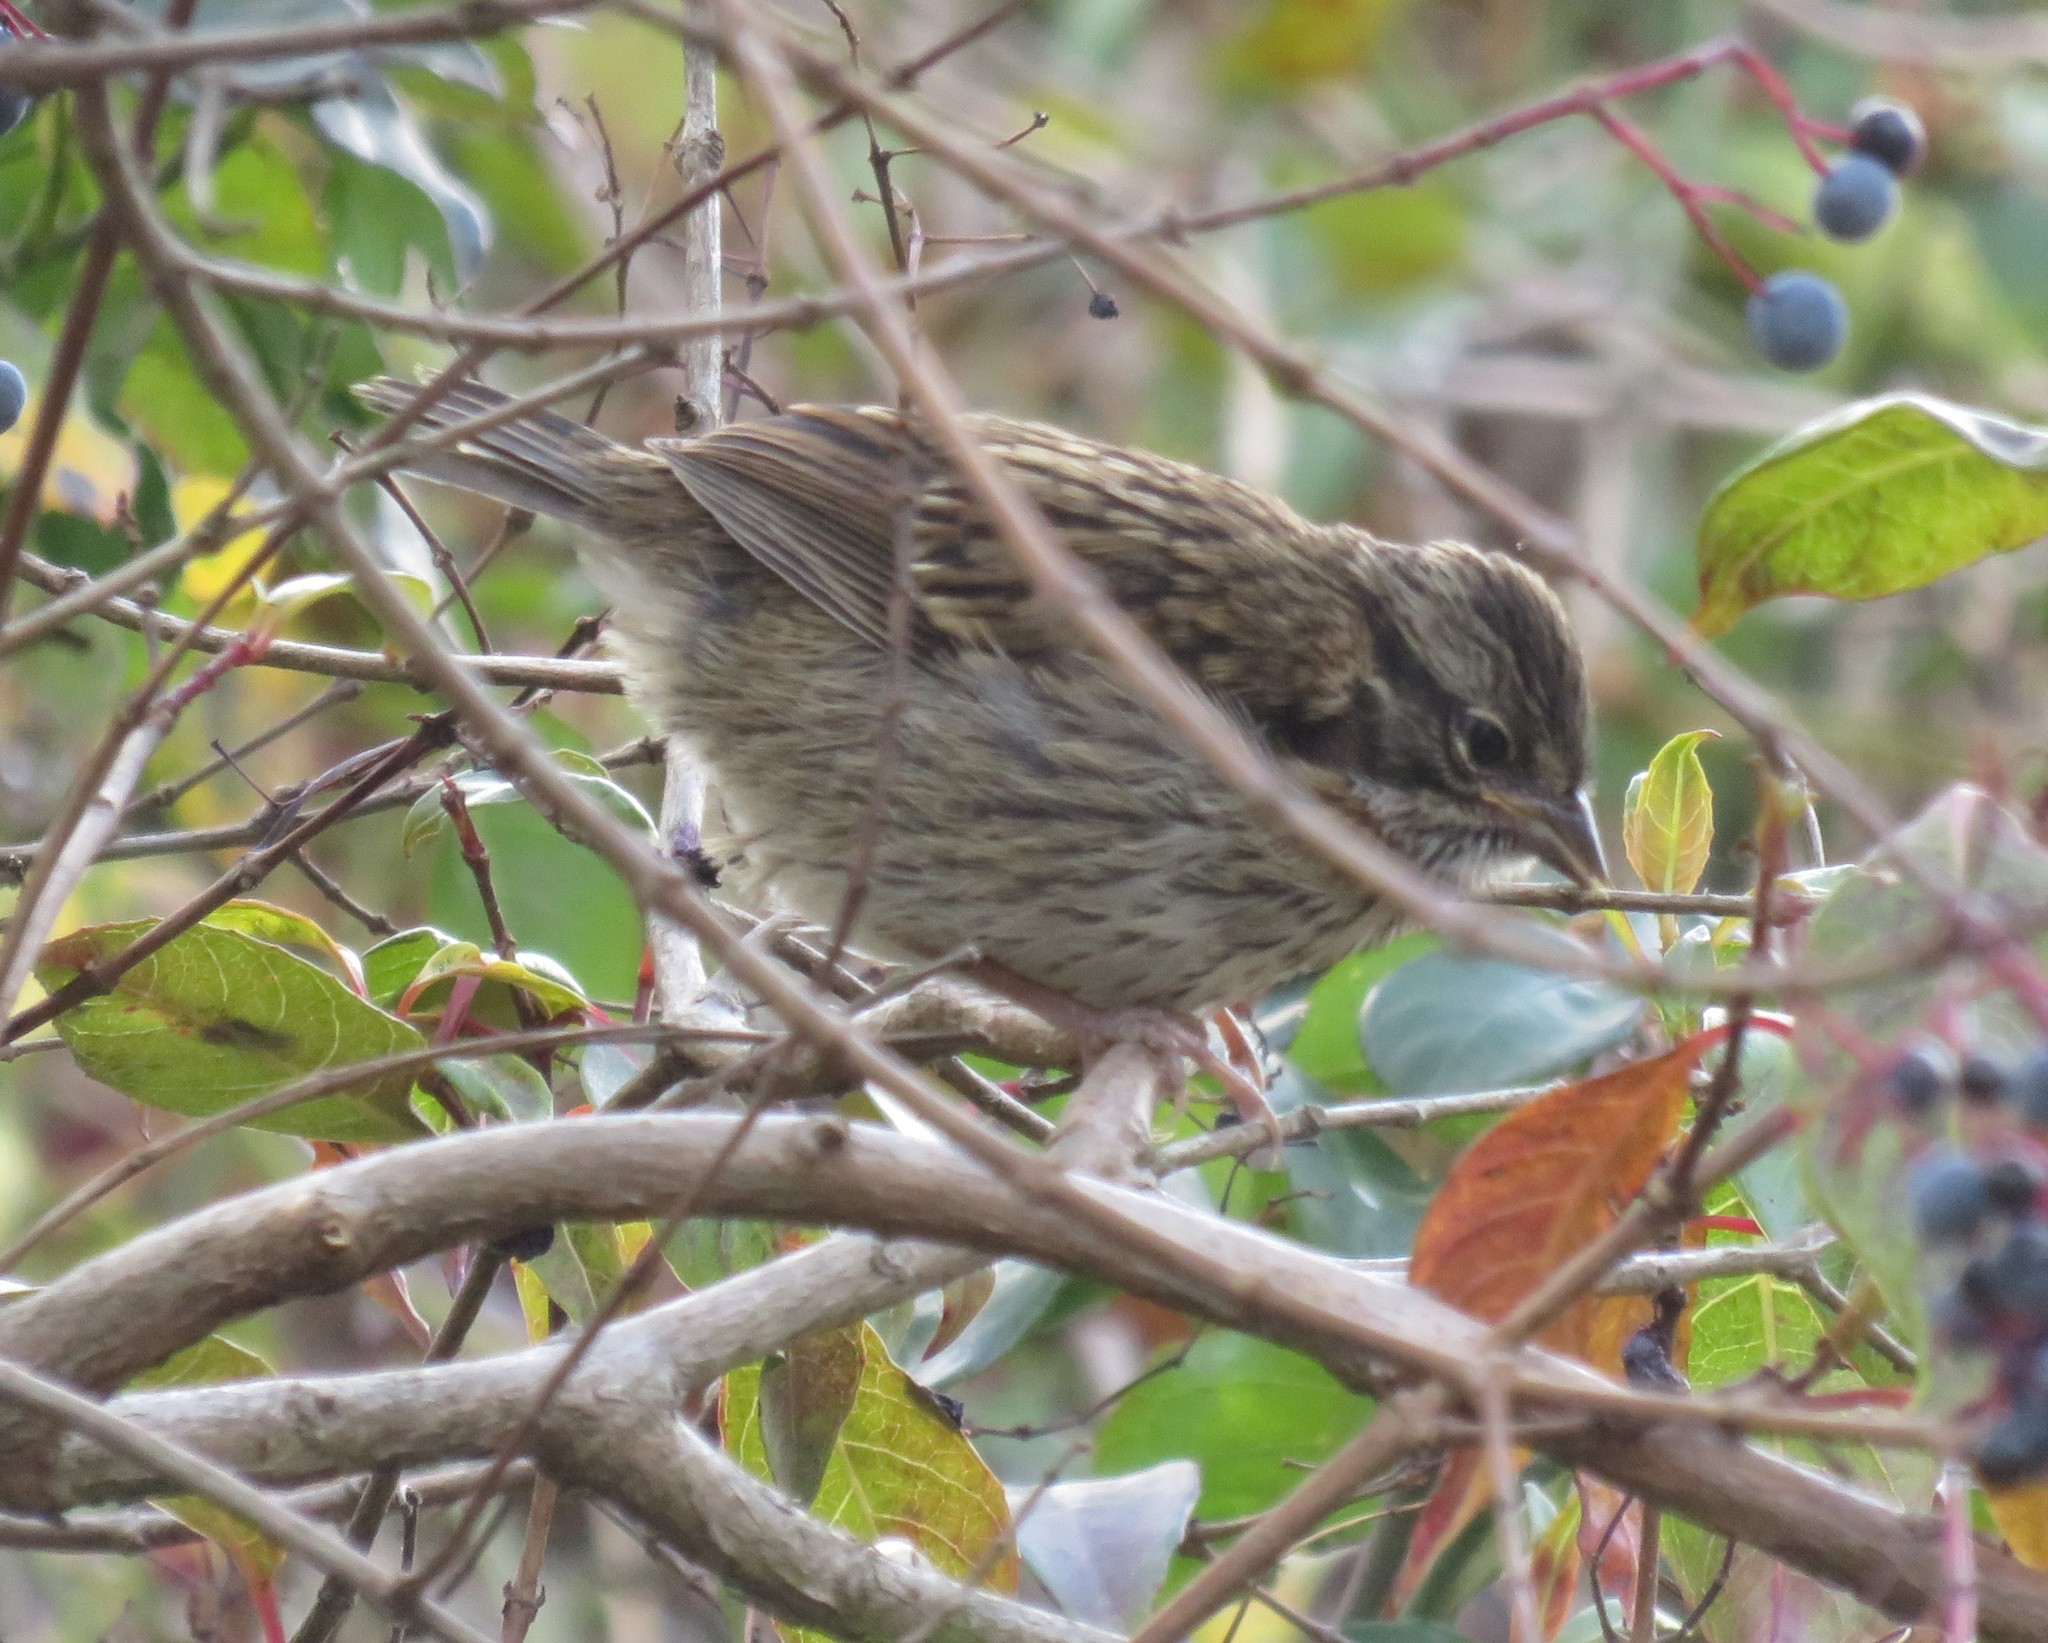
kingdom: Animalia
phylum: Chordata
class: Aves
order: Passeriformes
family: Passerellidae
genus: Zonotrichia
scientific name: Zonotrichia capensis
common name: Rufous-collared sparrow
